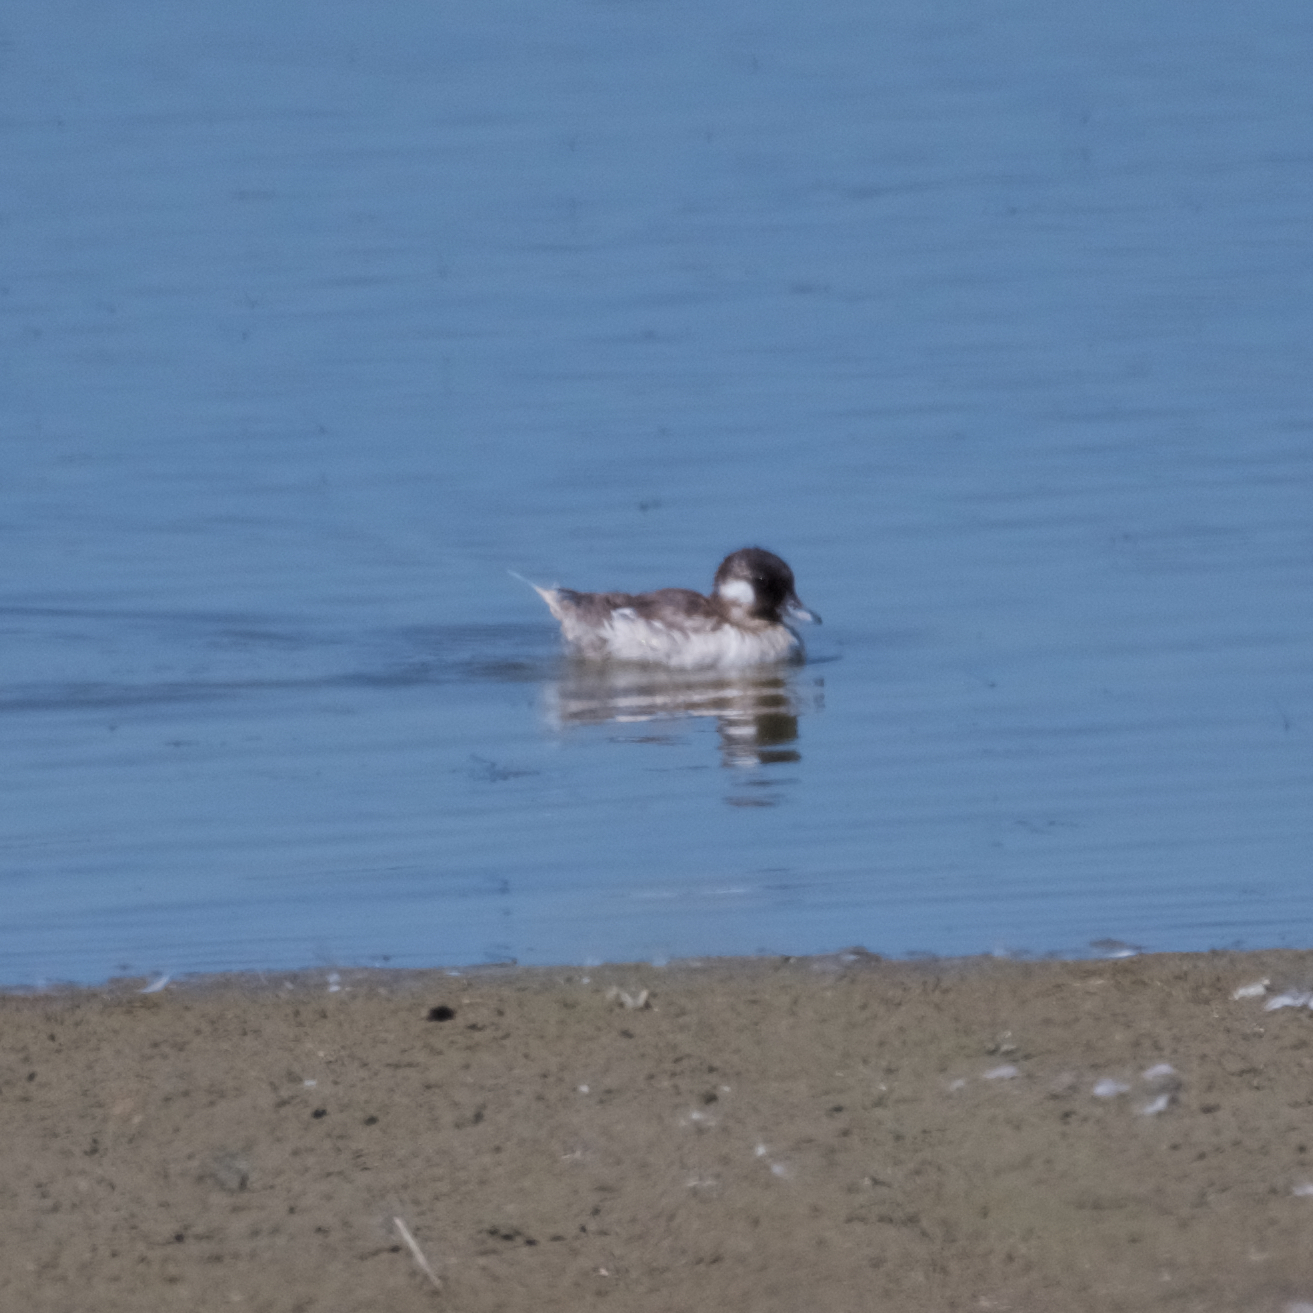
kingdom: Animalia
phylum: Chordata
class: Aves
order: Anseriformes
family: Anatidae
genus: Bucephala
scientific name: Bucephala albeola
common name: Bufflehead
